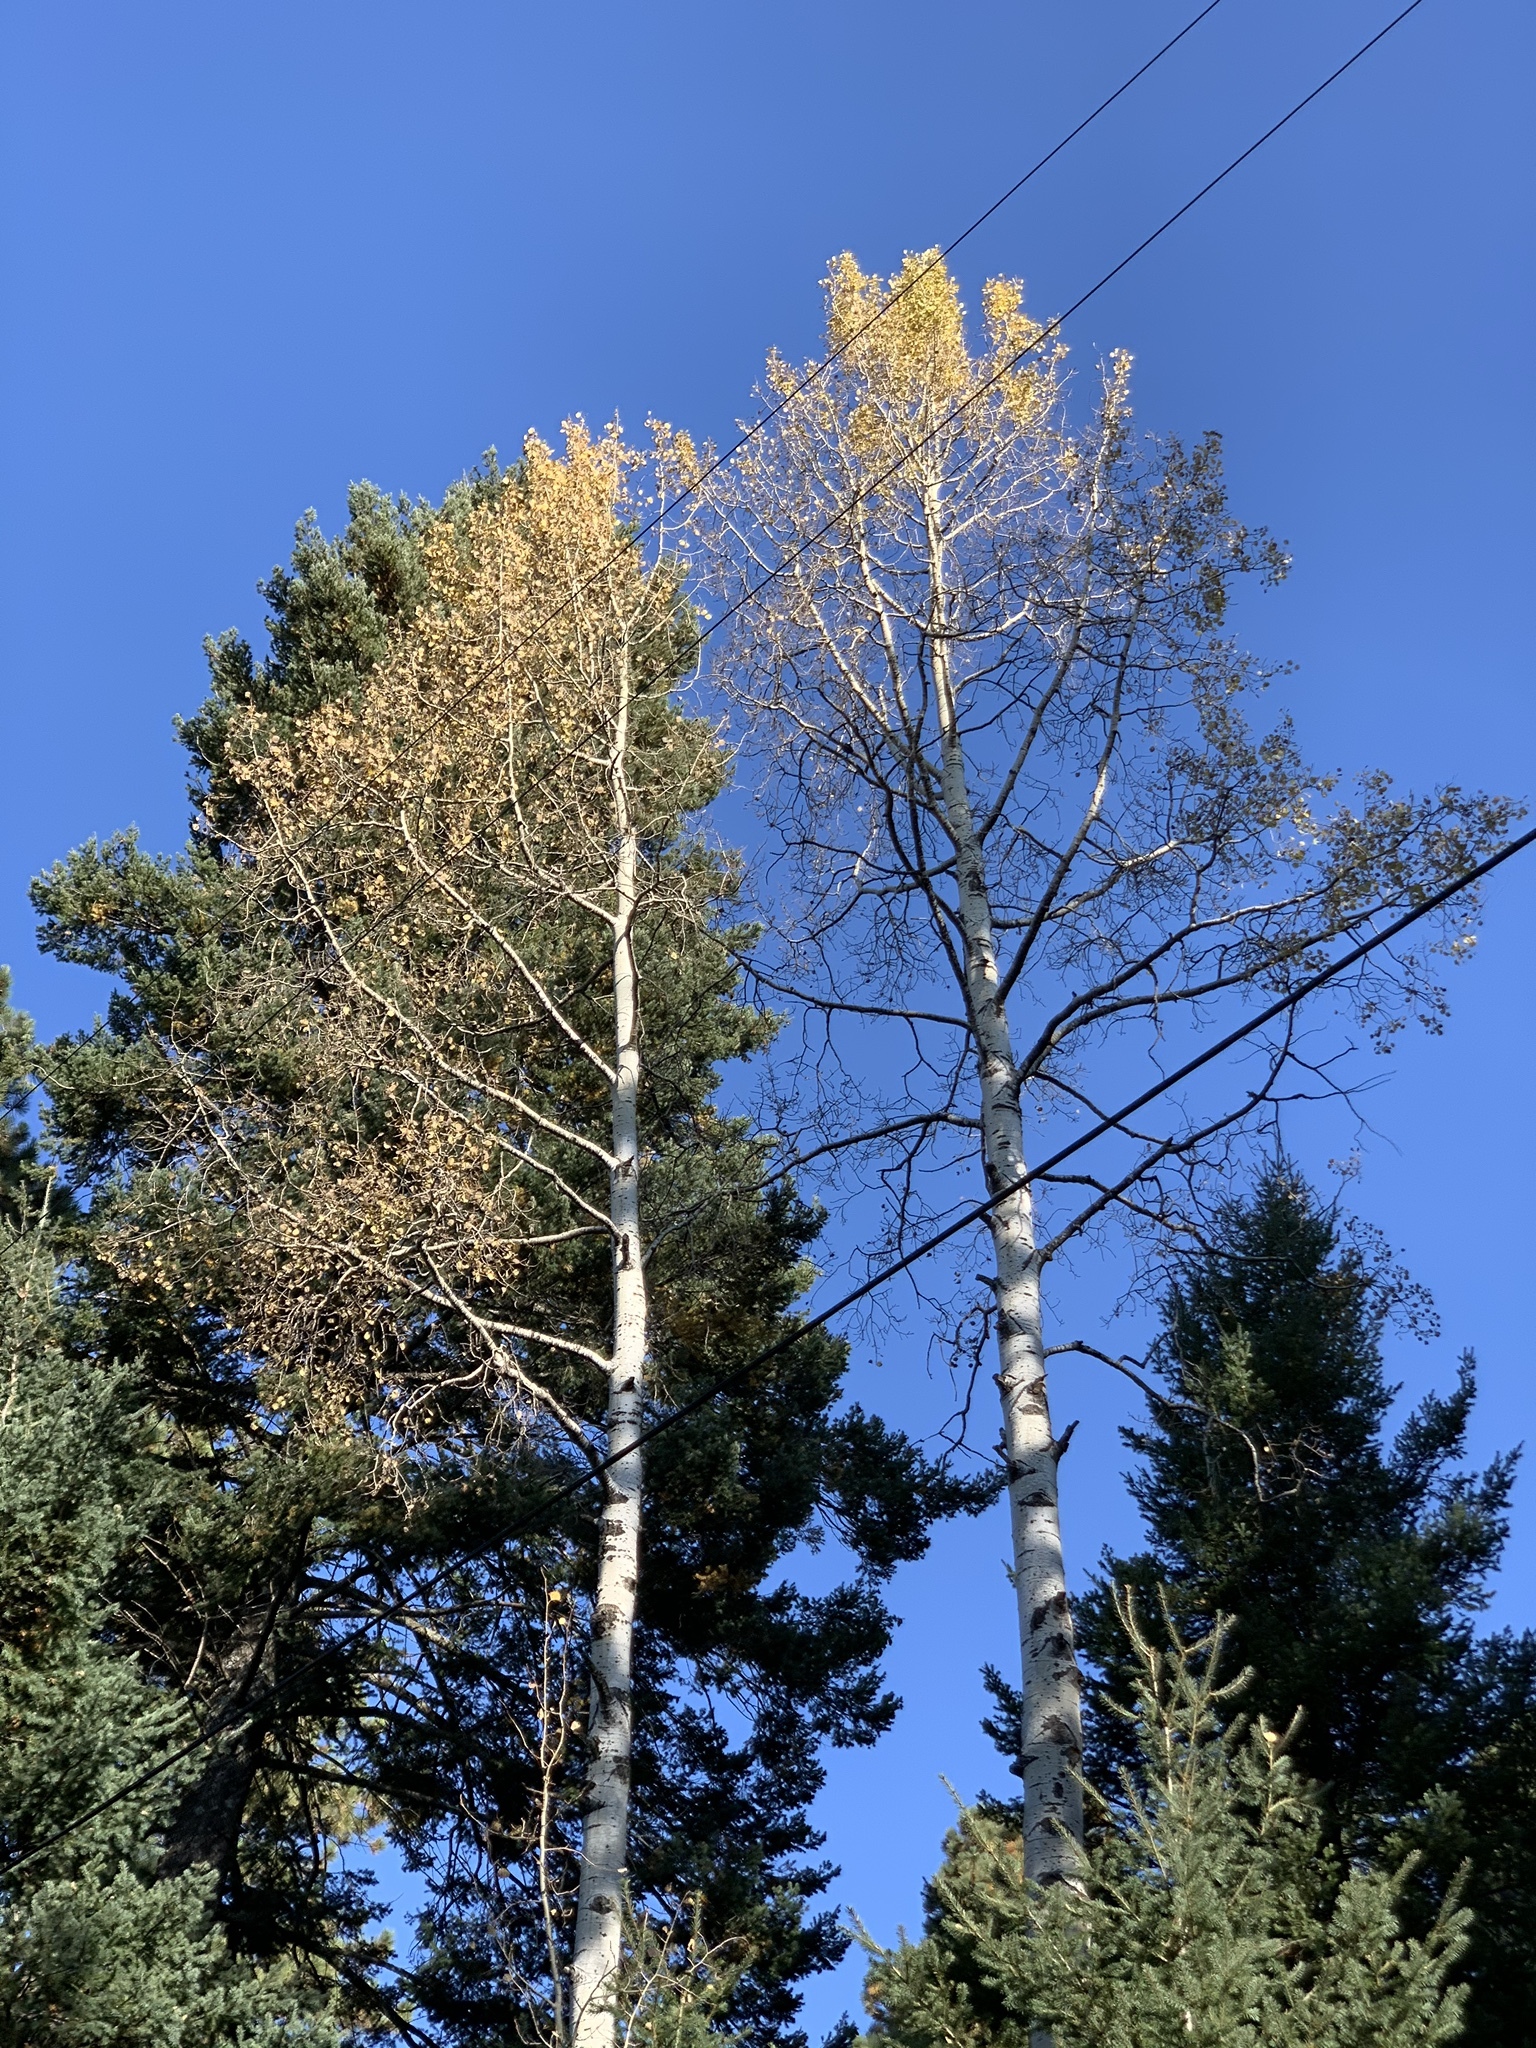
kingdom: Plantae
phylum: Tracheophyta
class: Magnoliopsida
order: Malpighiales
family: Salicaceae
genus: Populus
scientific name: Populus tremuloides
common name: Quaking aspen
